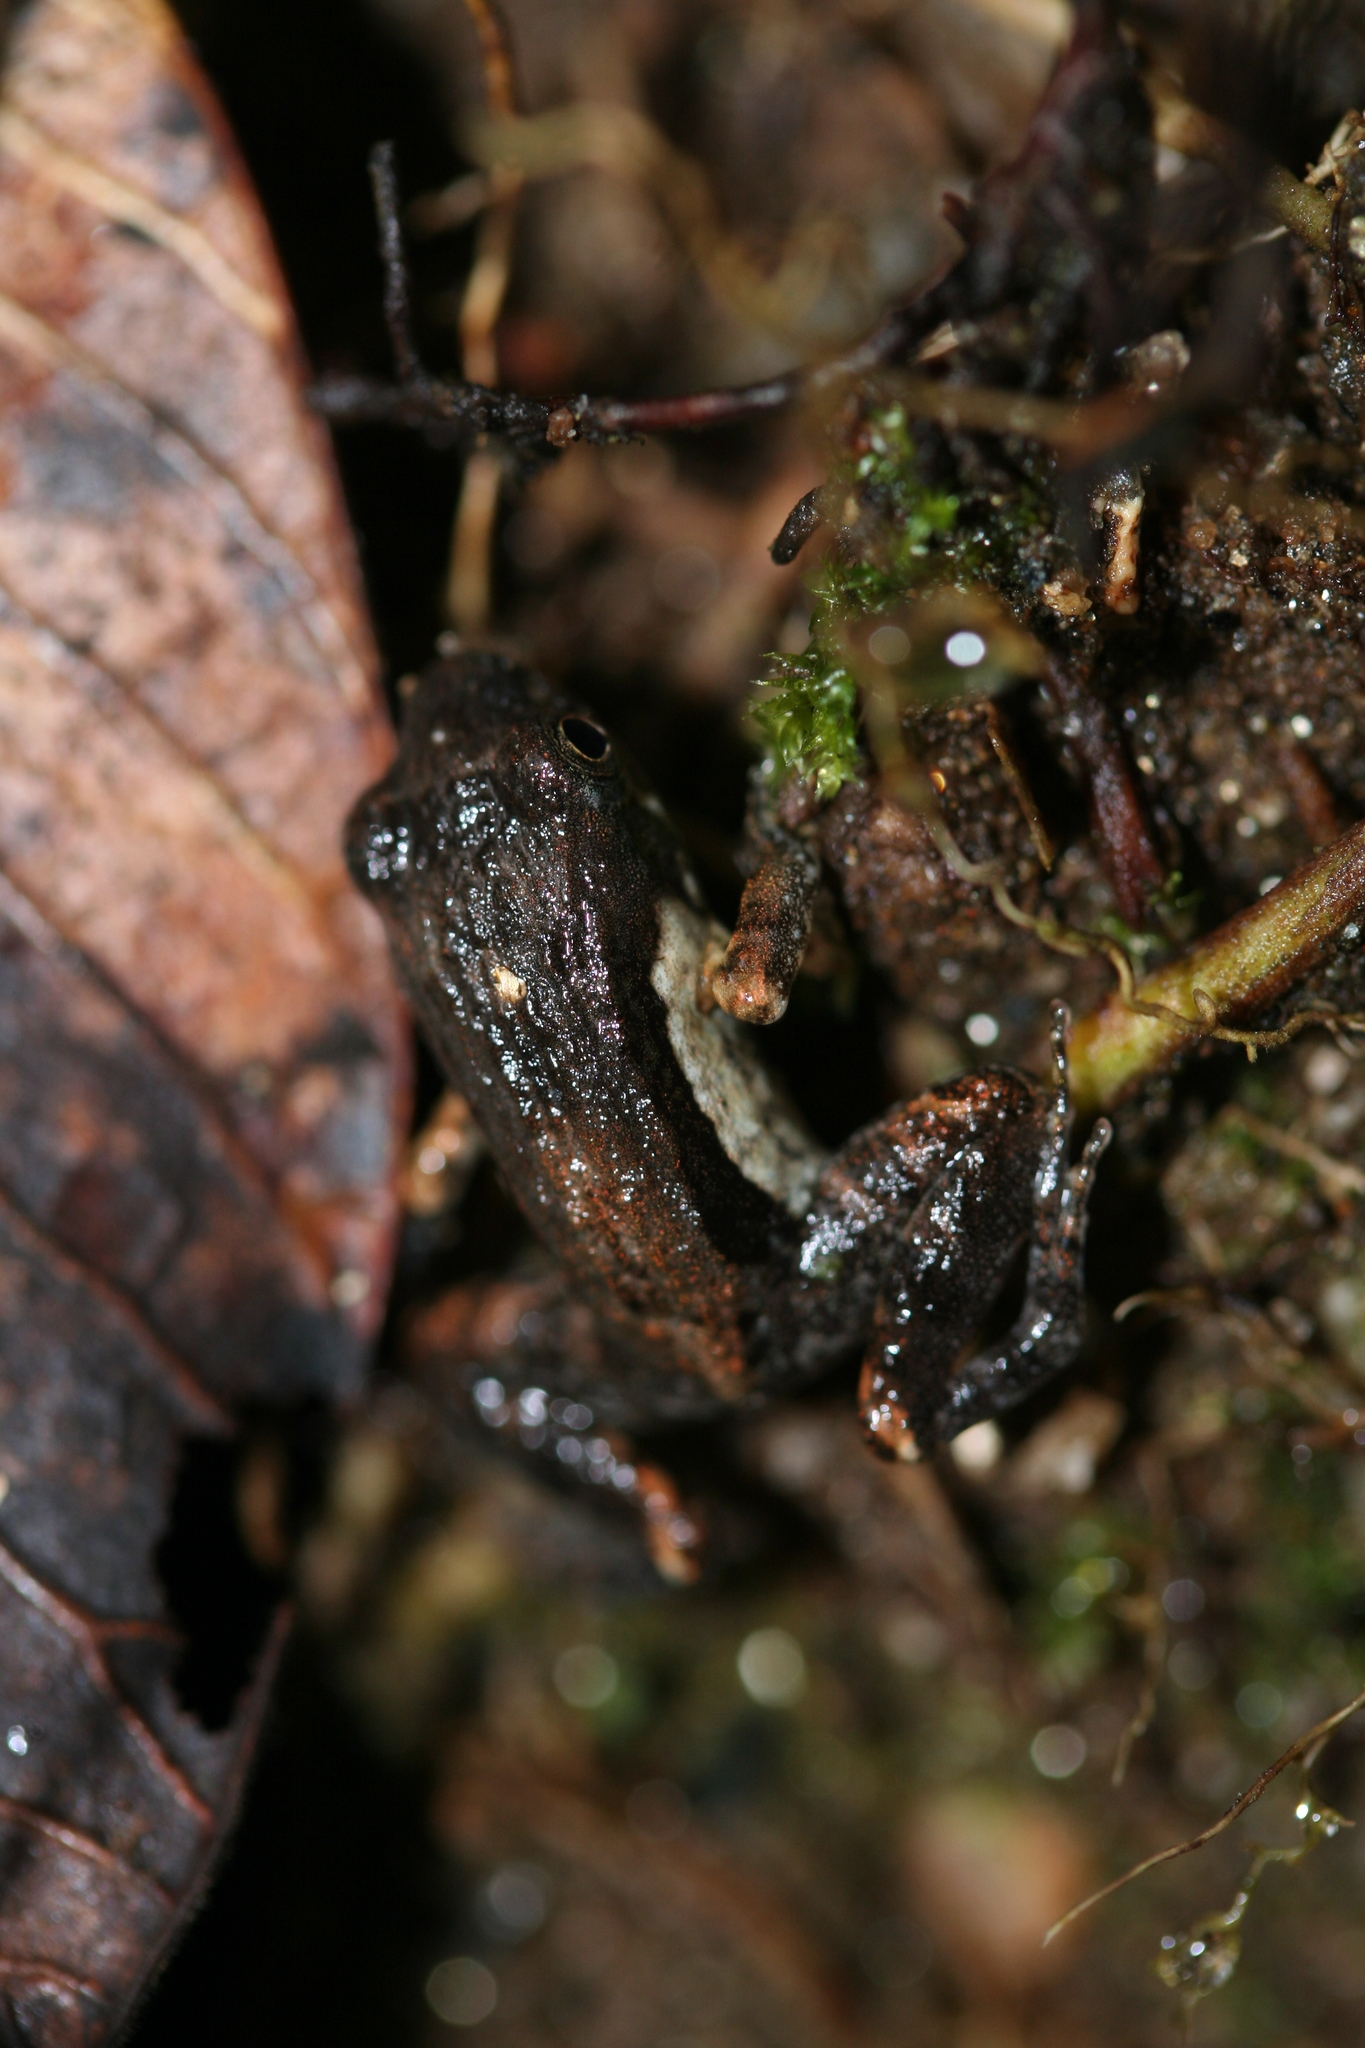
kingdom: Animalia
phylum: Chordata
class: Amphibia
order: Anura
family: Mantellidae
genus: Mantidactylus
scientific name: Mantidactylus majori
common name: Ivohimanita madagascar frog
